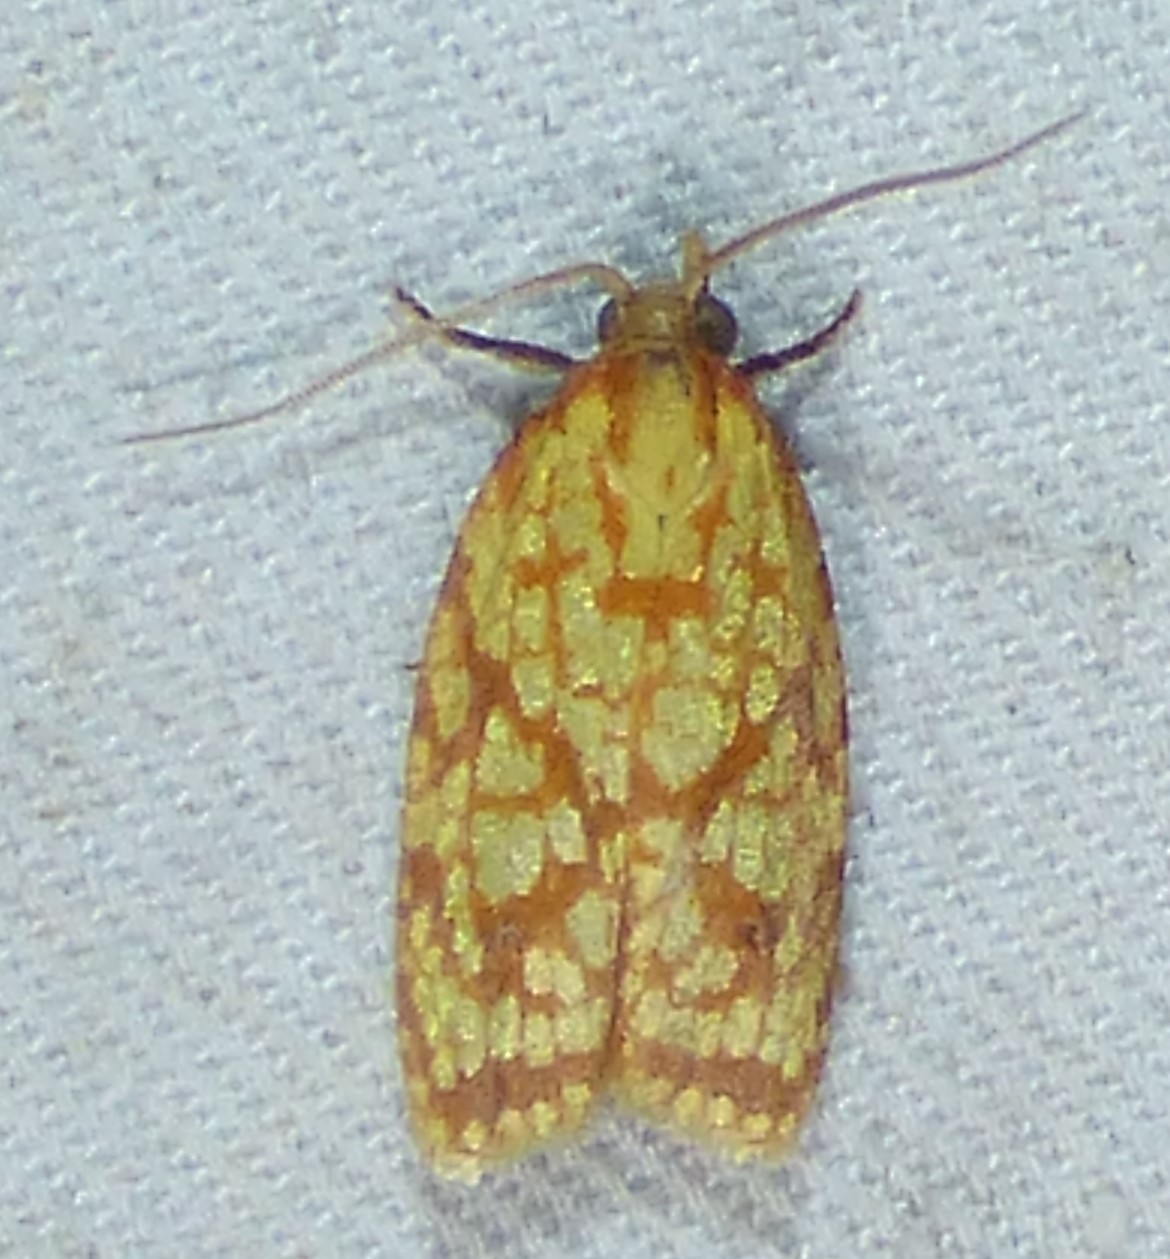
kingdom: Animalia
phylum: Arthropoda
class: Insecta
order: Lepidoptera
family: Tortricidae
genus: Sparganothis
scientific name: Sparganothis sulfureana
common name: Sparganothis fruitworm moth
